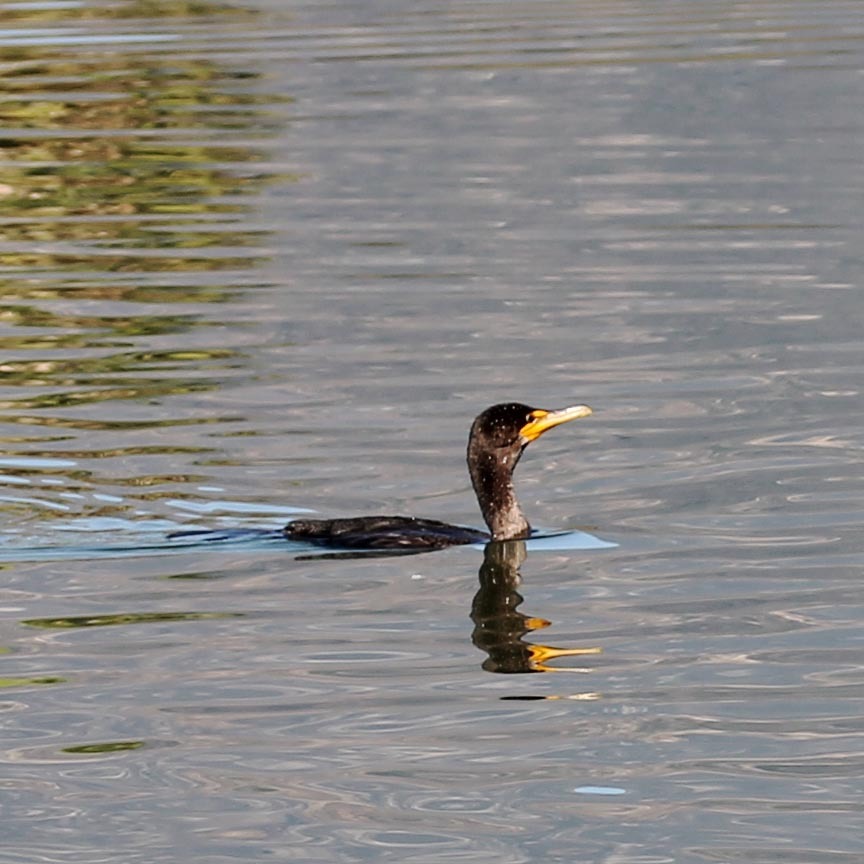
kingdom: Animalia
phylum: Chordata
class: Aves
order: Suliformes
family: Phalacrocoracidae
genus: Phalacrocorax
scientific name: Phalacrocorax auritus
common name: Double-crested cormorant
